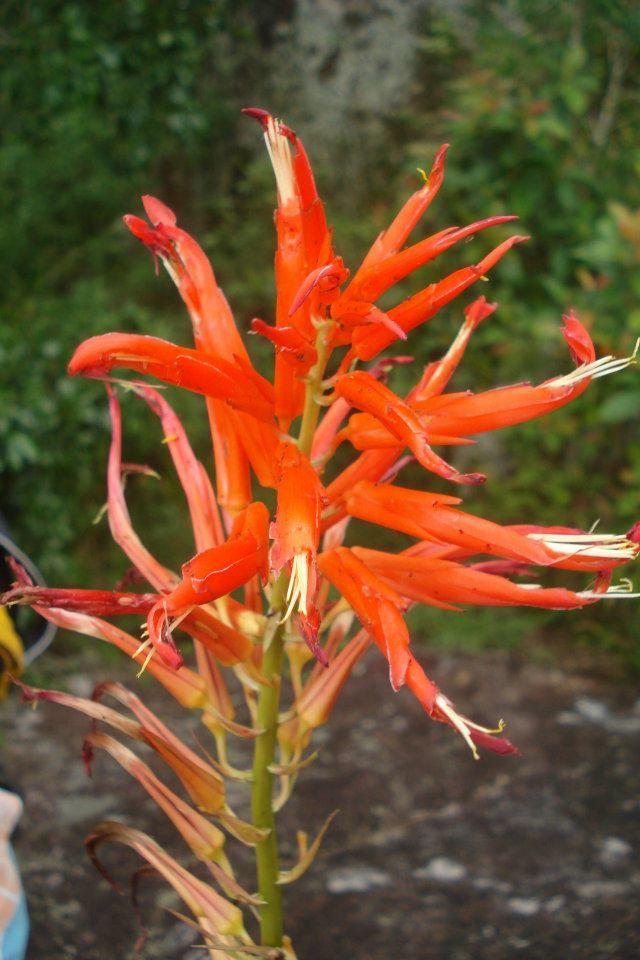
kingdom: Plantae
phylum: Tracheophyta
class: Liliopsida
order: Poales
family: Bromeliaceae
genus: Pitcairnia
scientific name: Pitcairnia flammea
